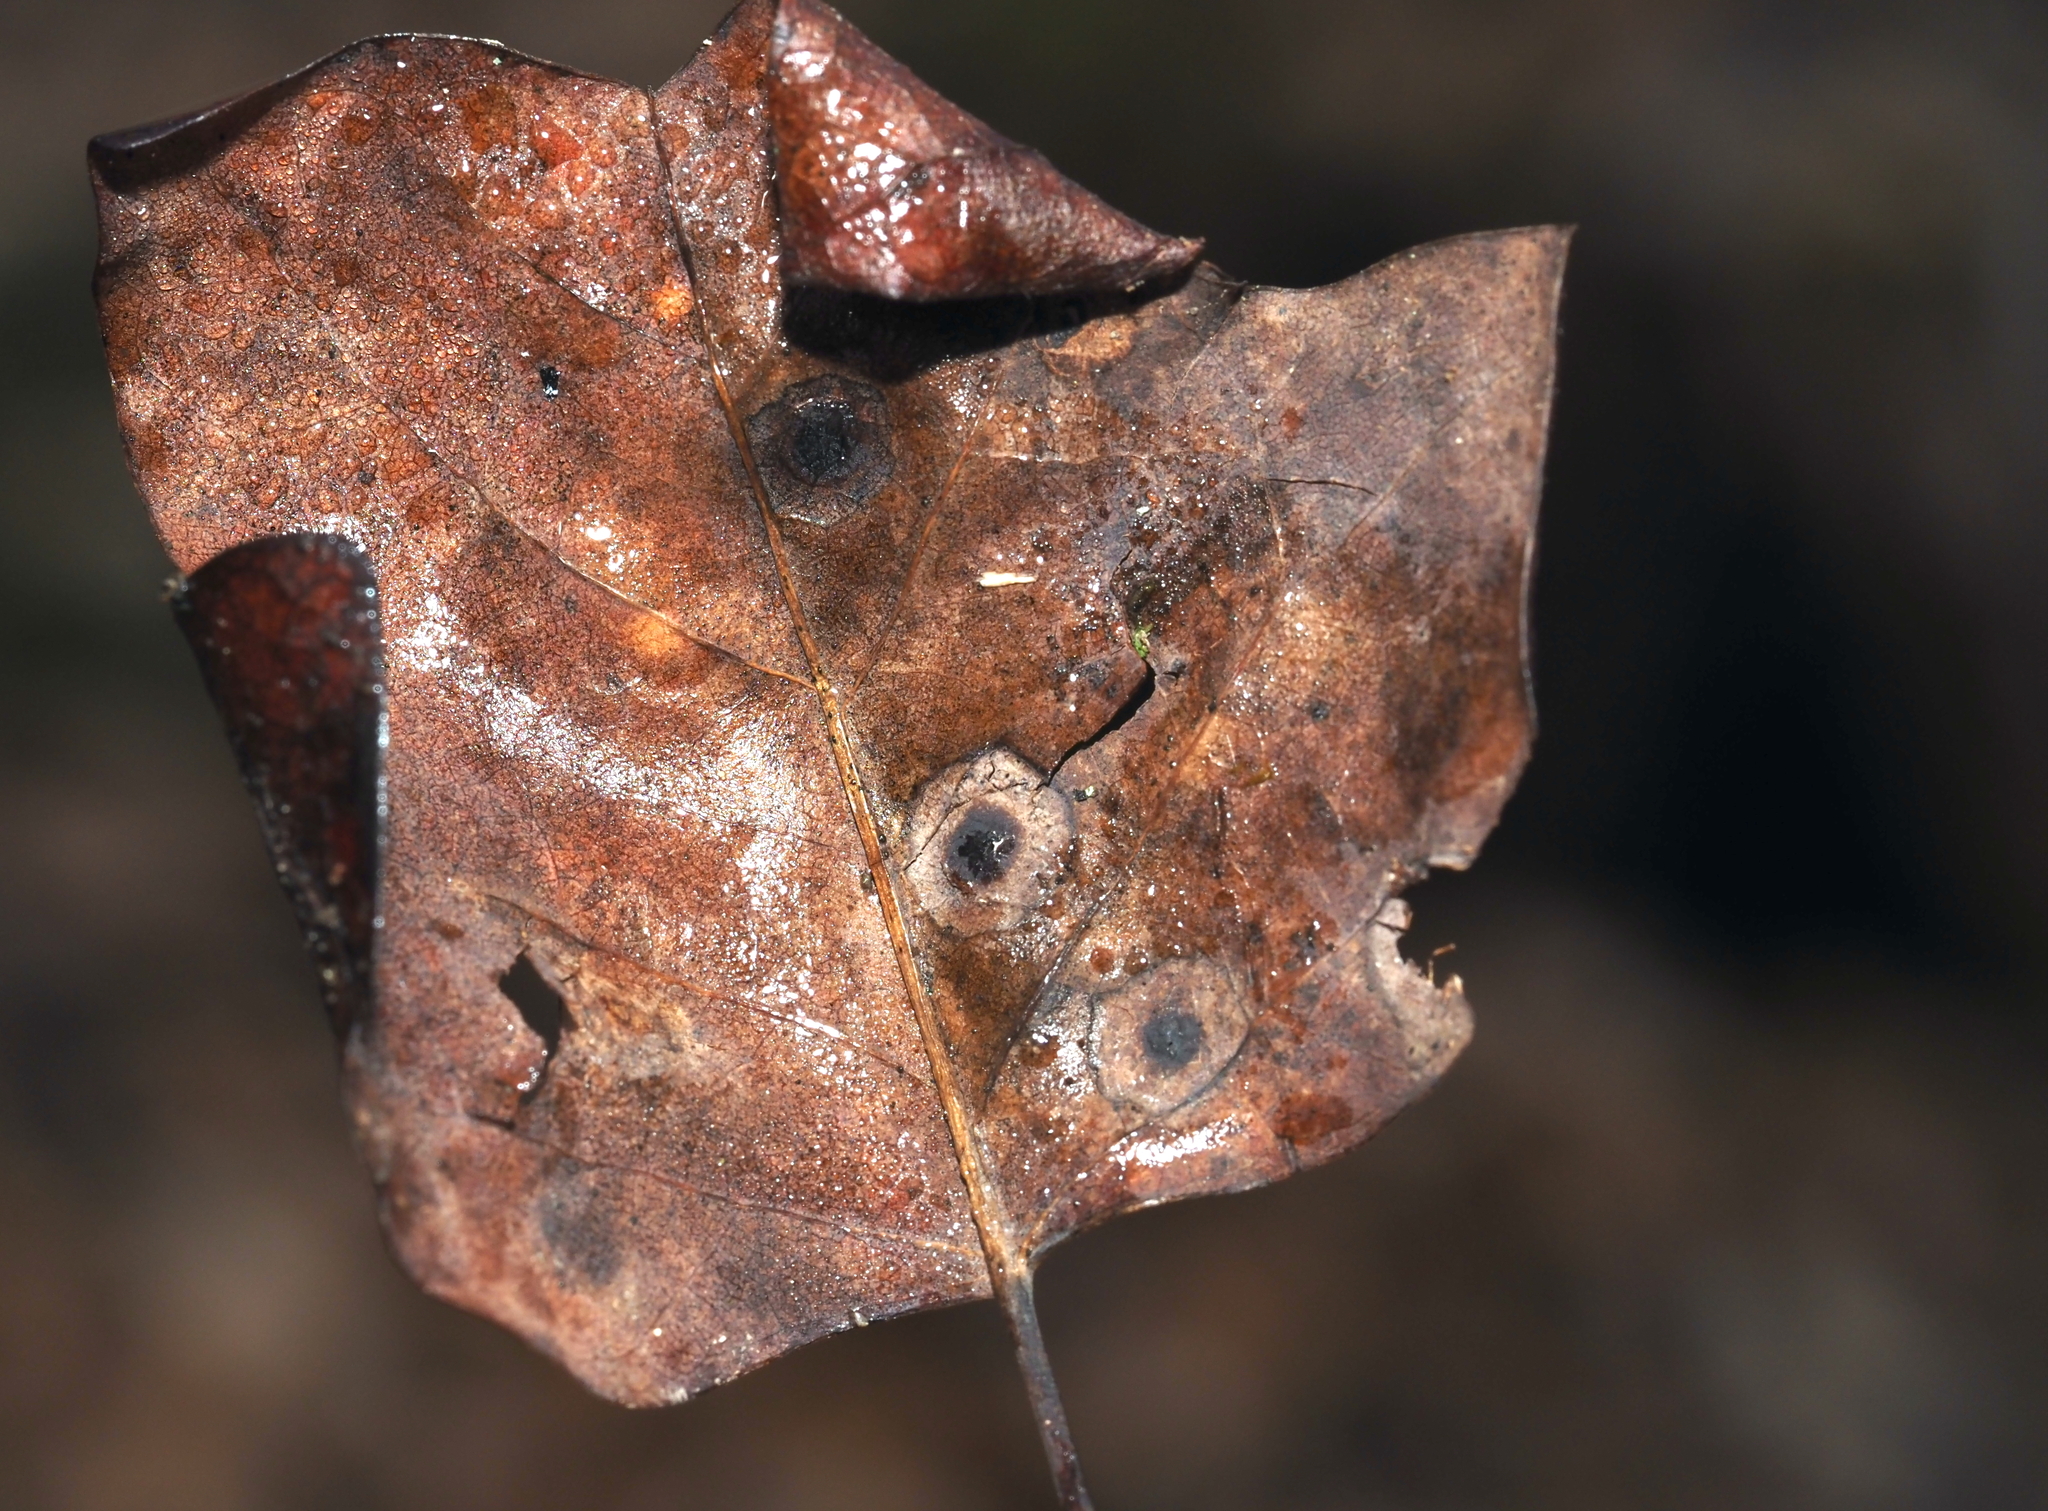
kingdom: Animalia
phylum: Arthropoda
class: Insecta
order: Diptera
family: Cecidomyiidae
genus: Resseliella
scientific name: Resseliella liriodendri
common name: Tulip tree leaf spot gall midge
